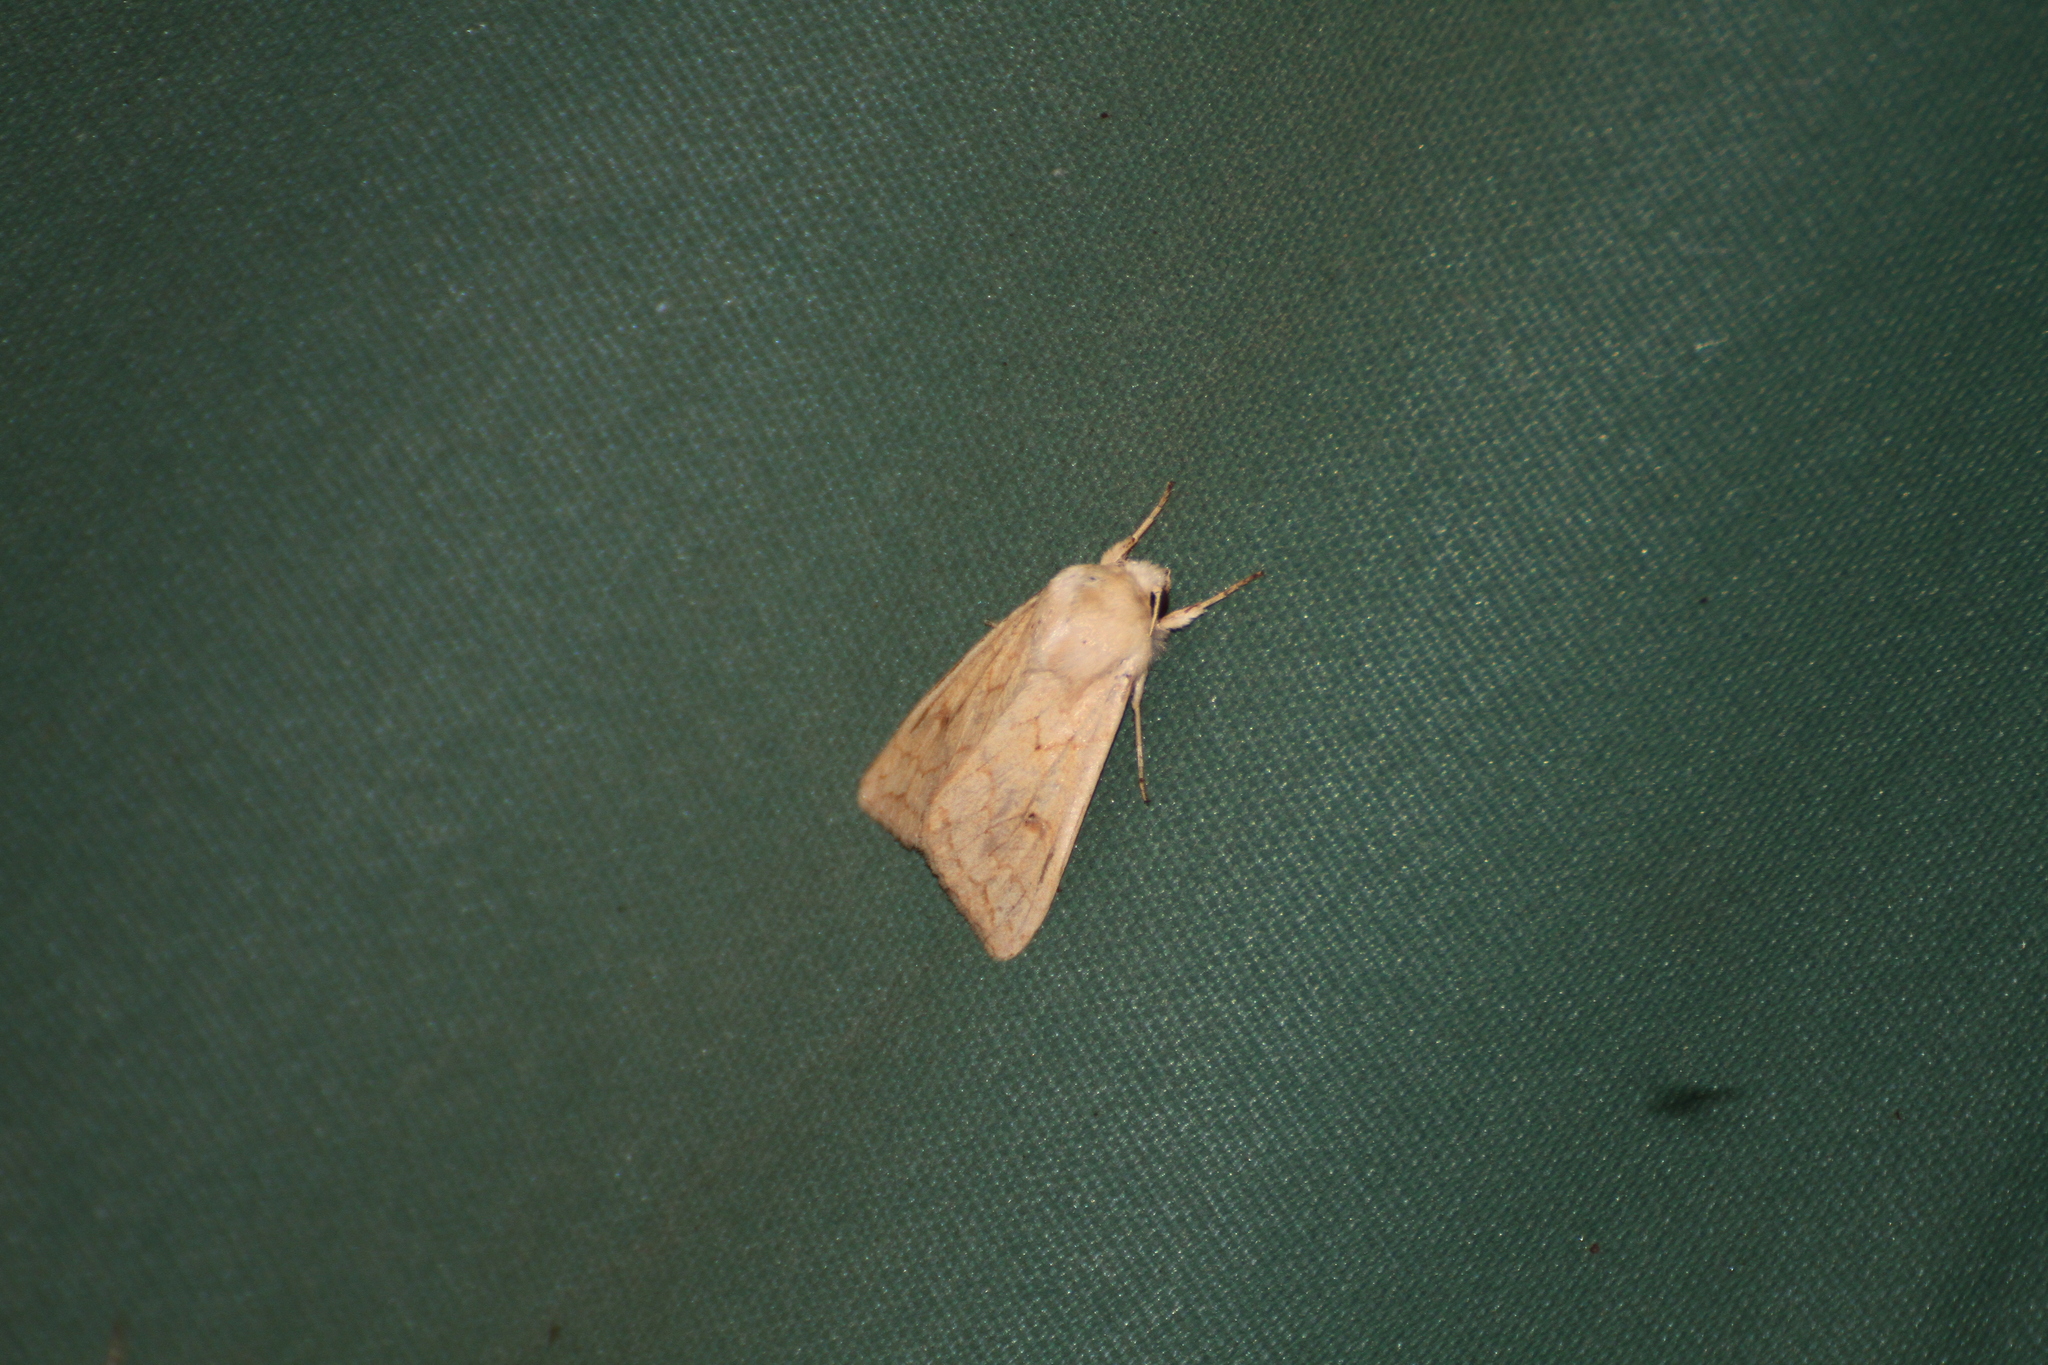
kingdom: Animalia
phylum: Arthropoda
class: Insecta
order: Lepidoptera
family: Noctuidae
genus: Mythimna
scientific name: Mythimna vitellina
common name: Delicate
